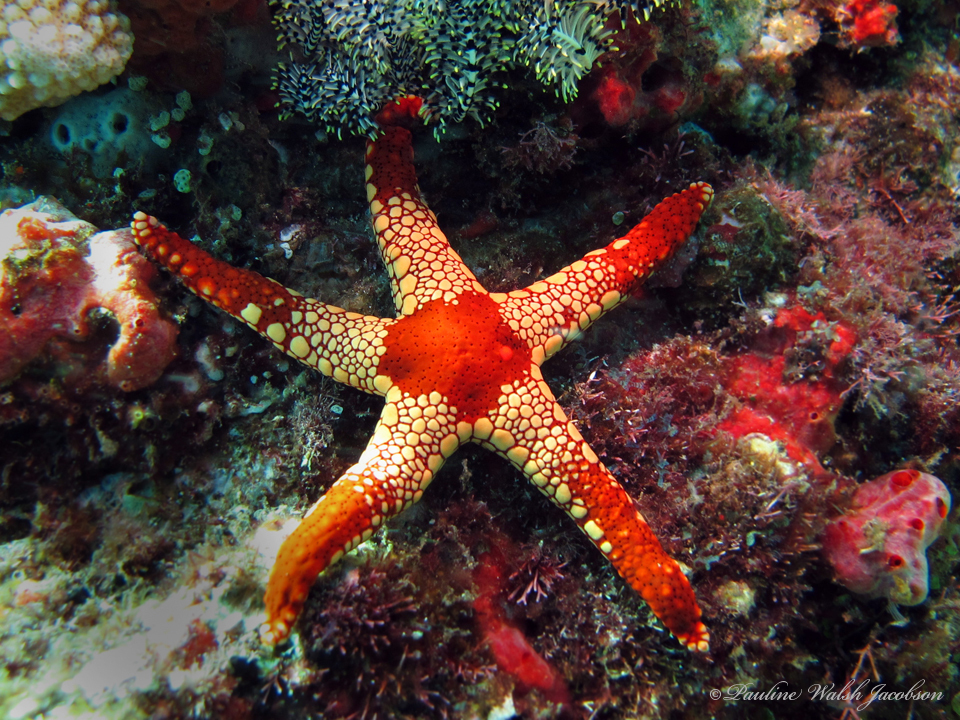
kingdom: Animalia
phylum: Echinodermata
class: Asteroidea
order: Valvatida
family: Goniasteridae
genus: Fromia
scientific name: Fromia monilis
